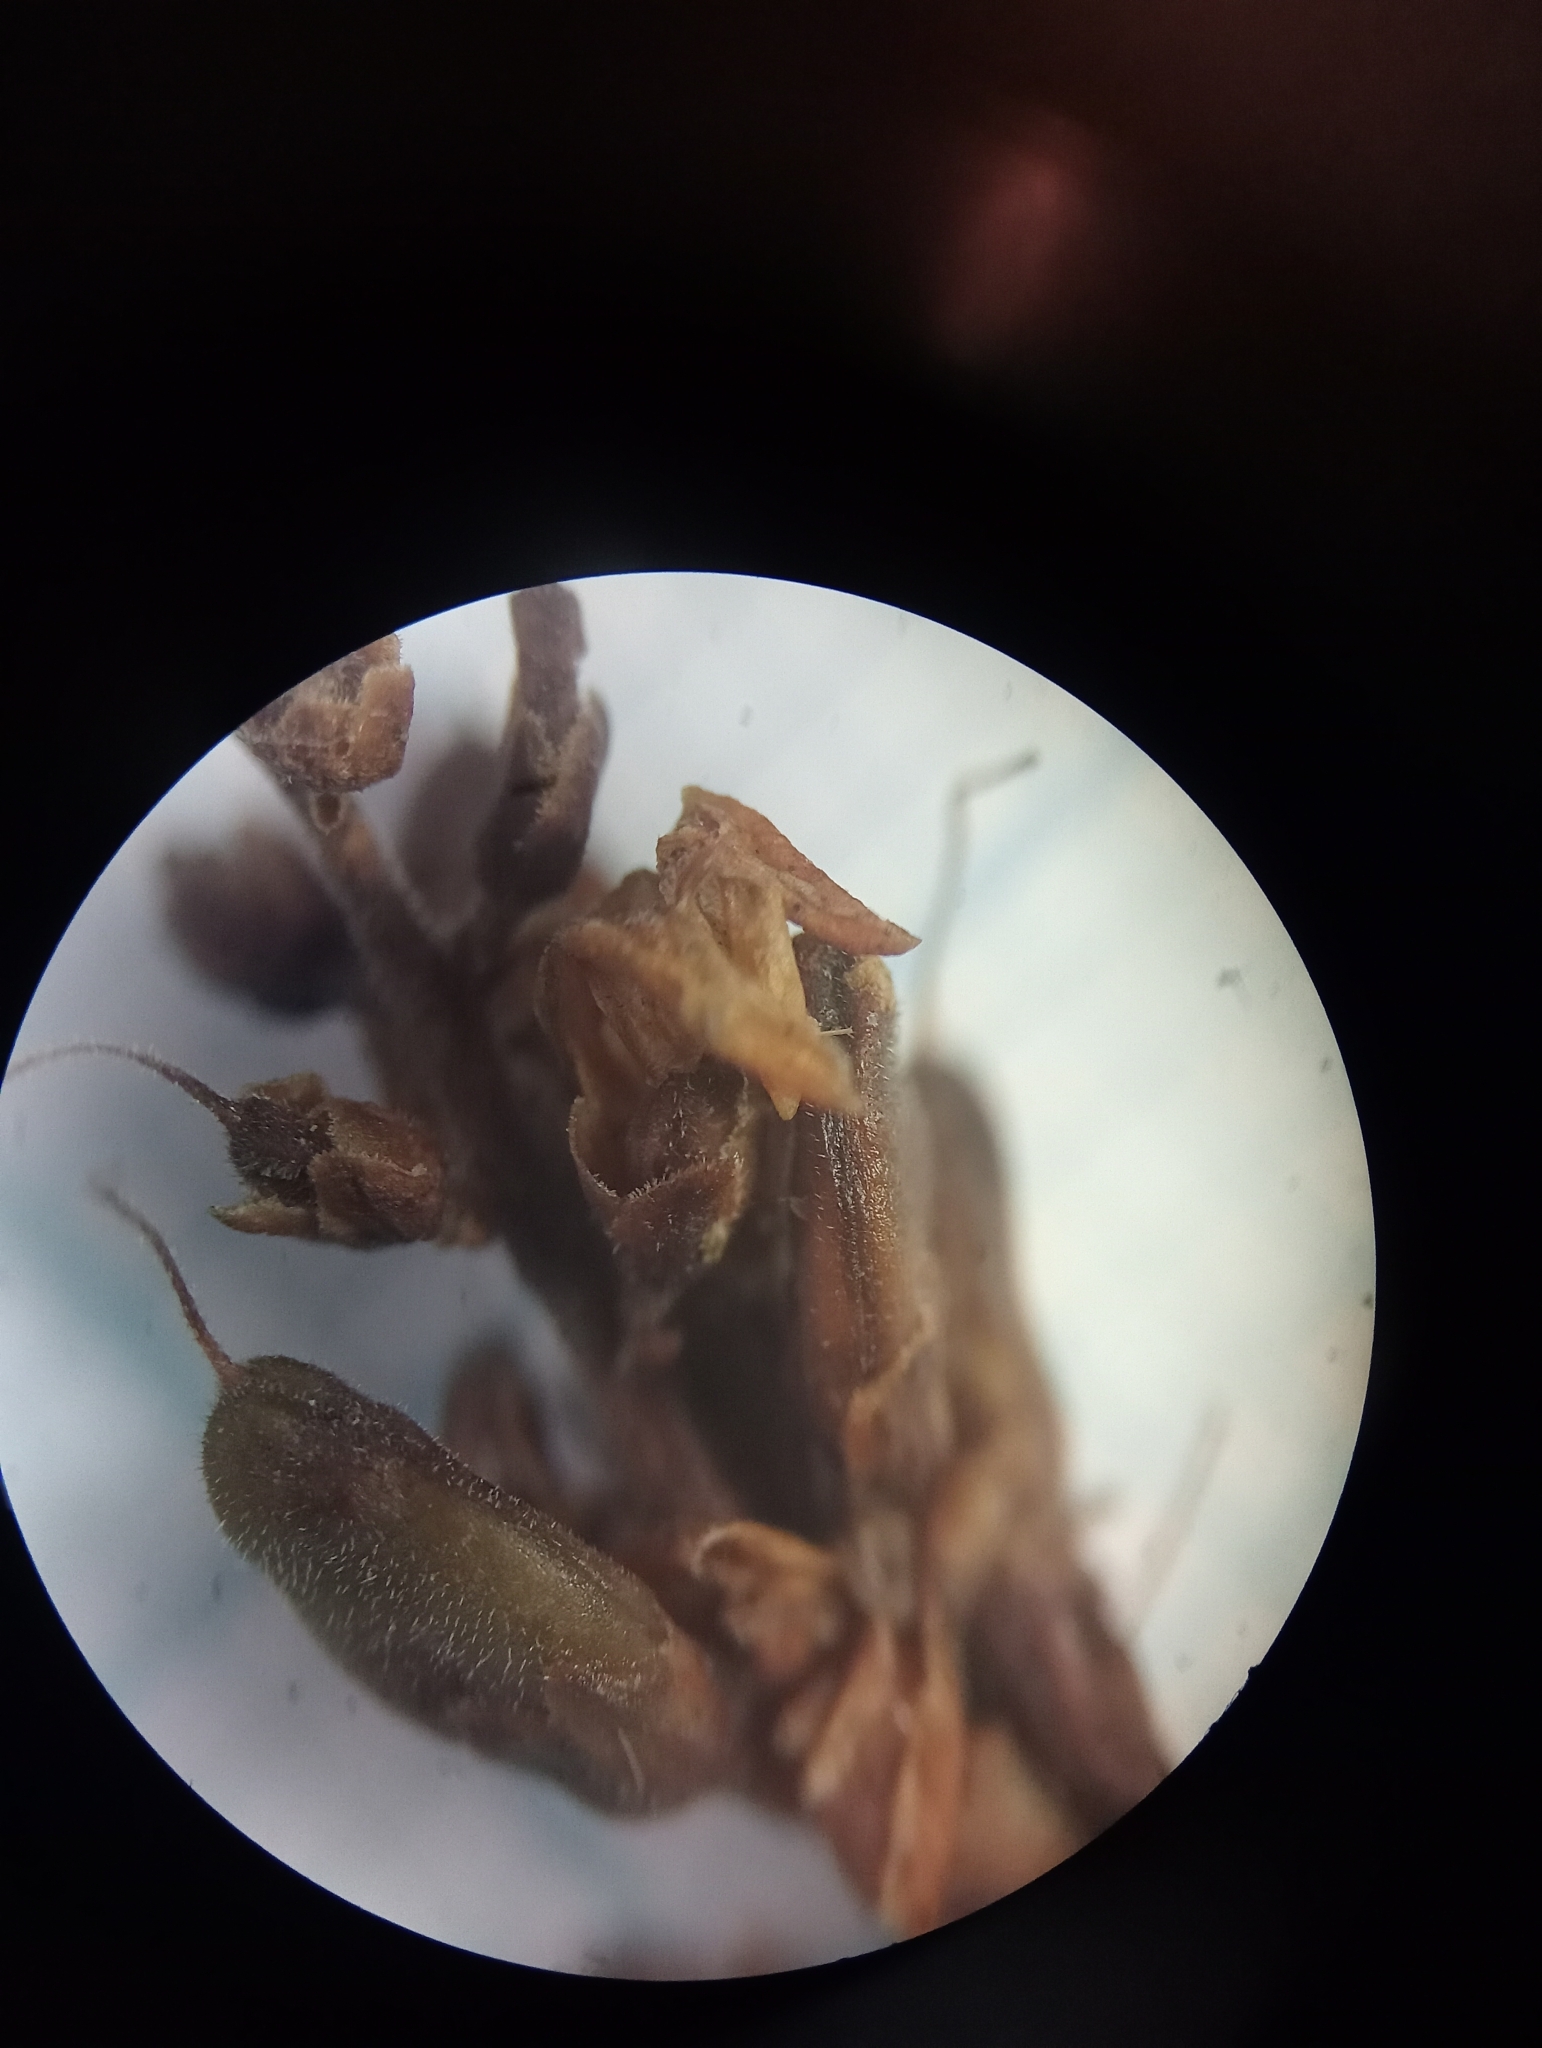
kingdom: Plantae
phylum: Tracheophyta
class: Magnoliopsida
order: Lamiales
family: Plantaginaceae
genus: Veronica
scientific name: Veronica glaucophylla
